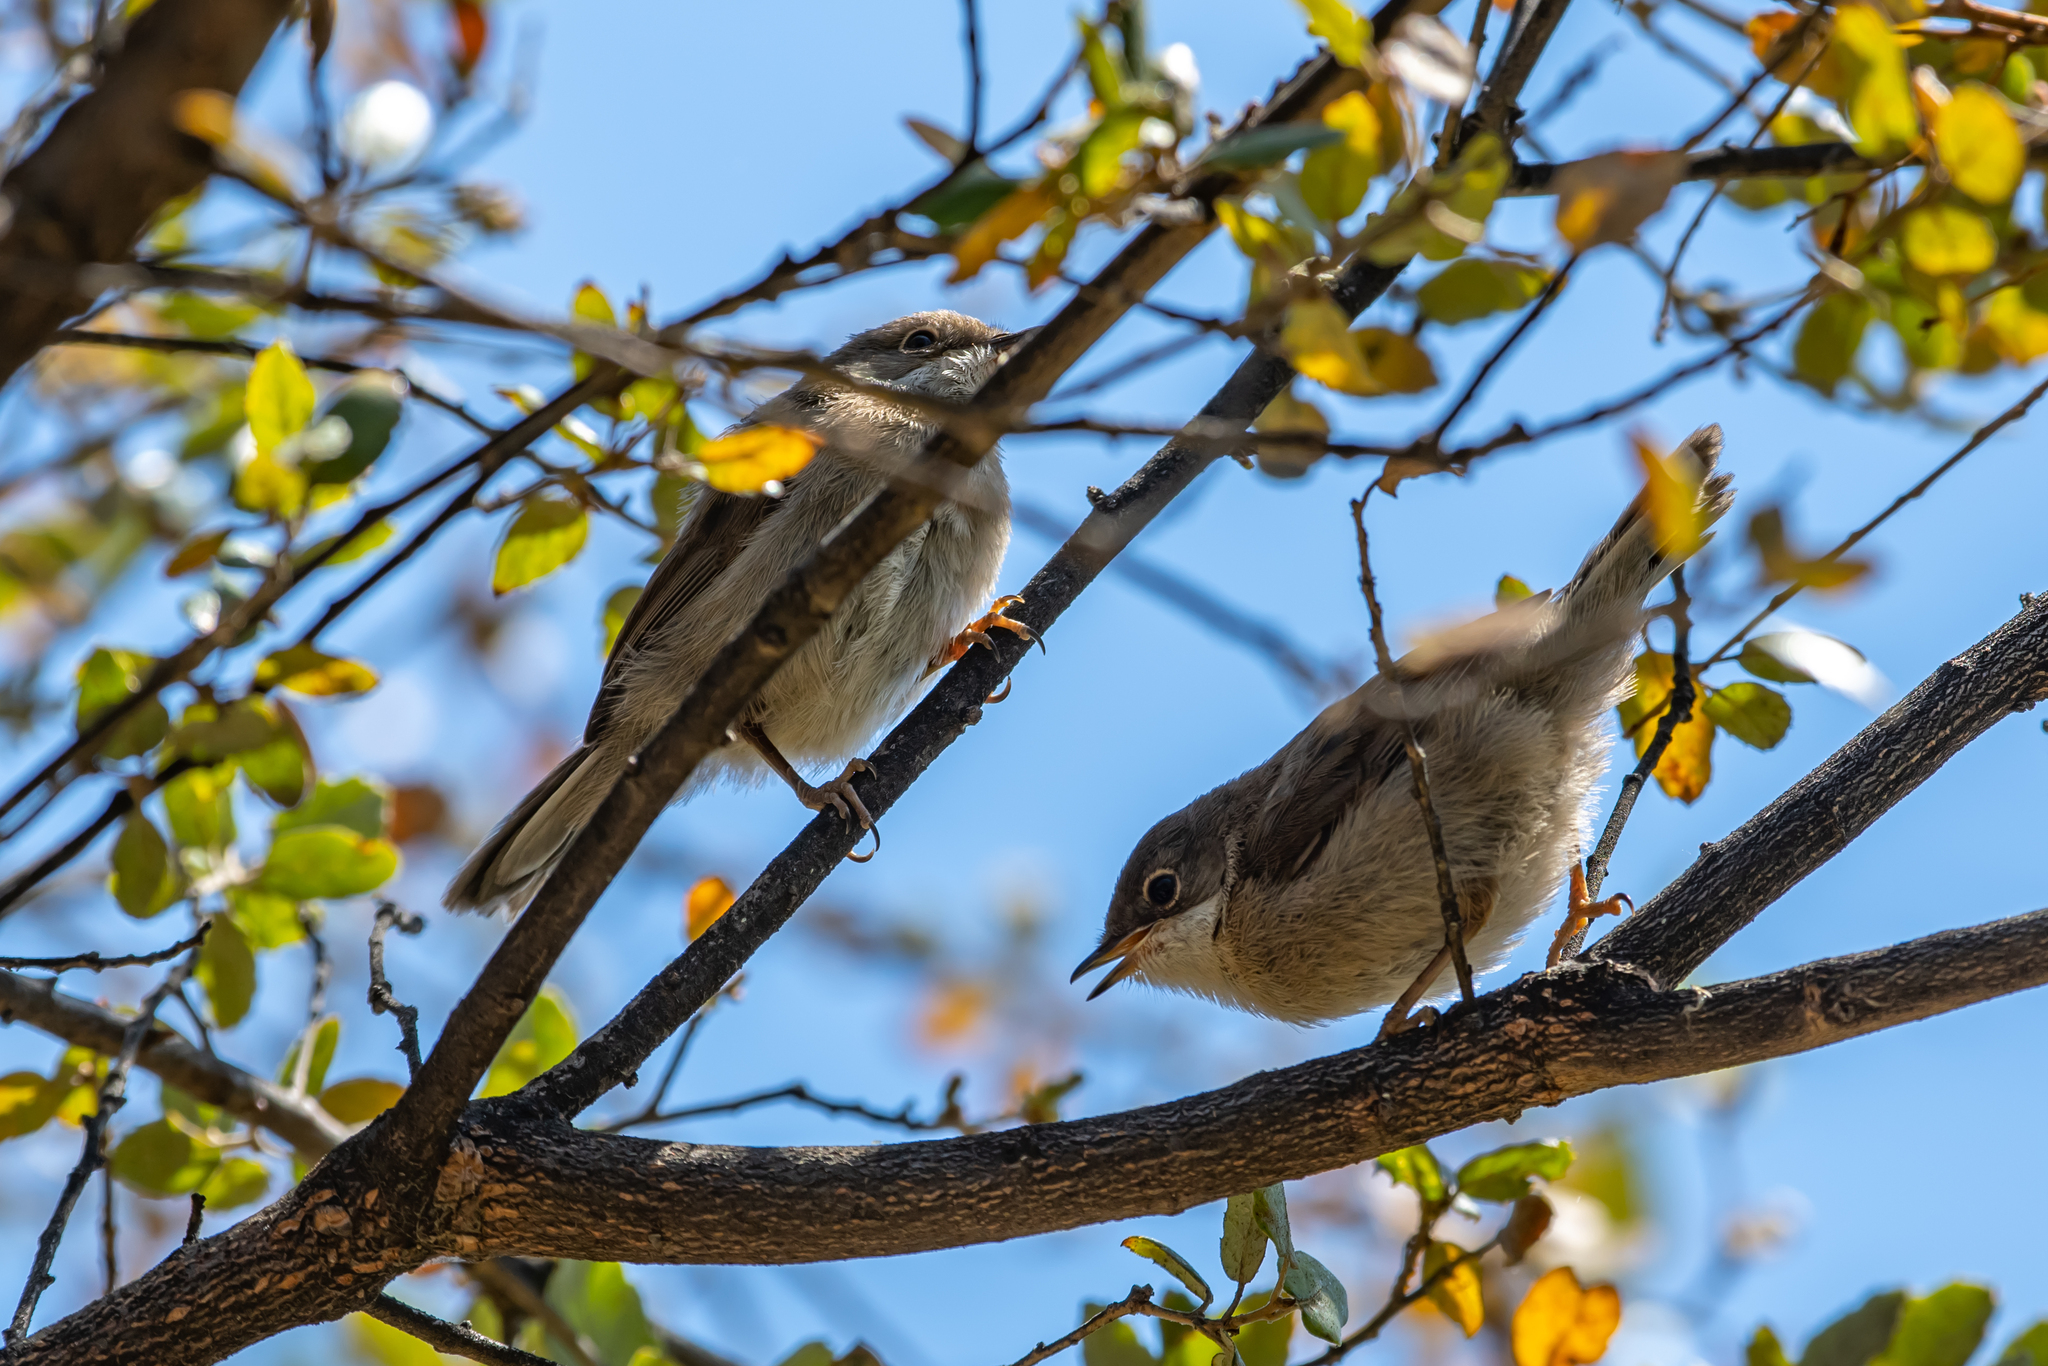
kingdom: Animalia
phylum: Chordata
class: Aves
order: Passeriformes
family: Sylviidae
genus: Curruca
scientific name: Curruca melanocephala
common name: Sardinian warbler
